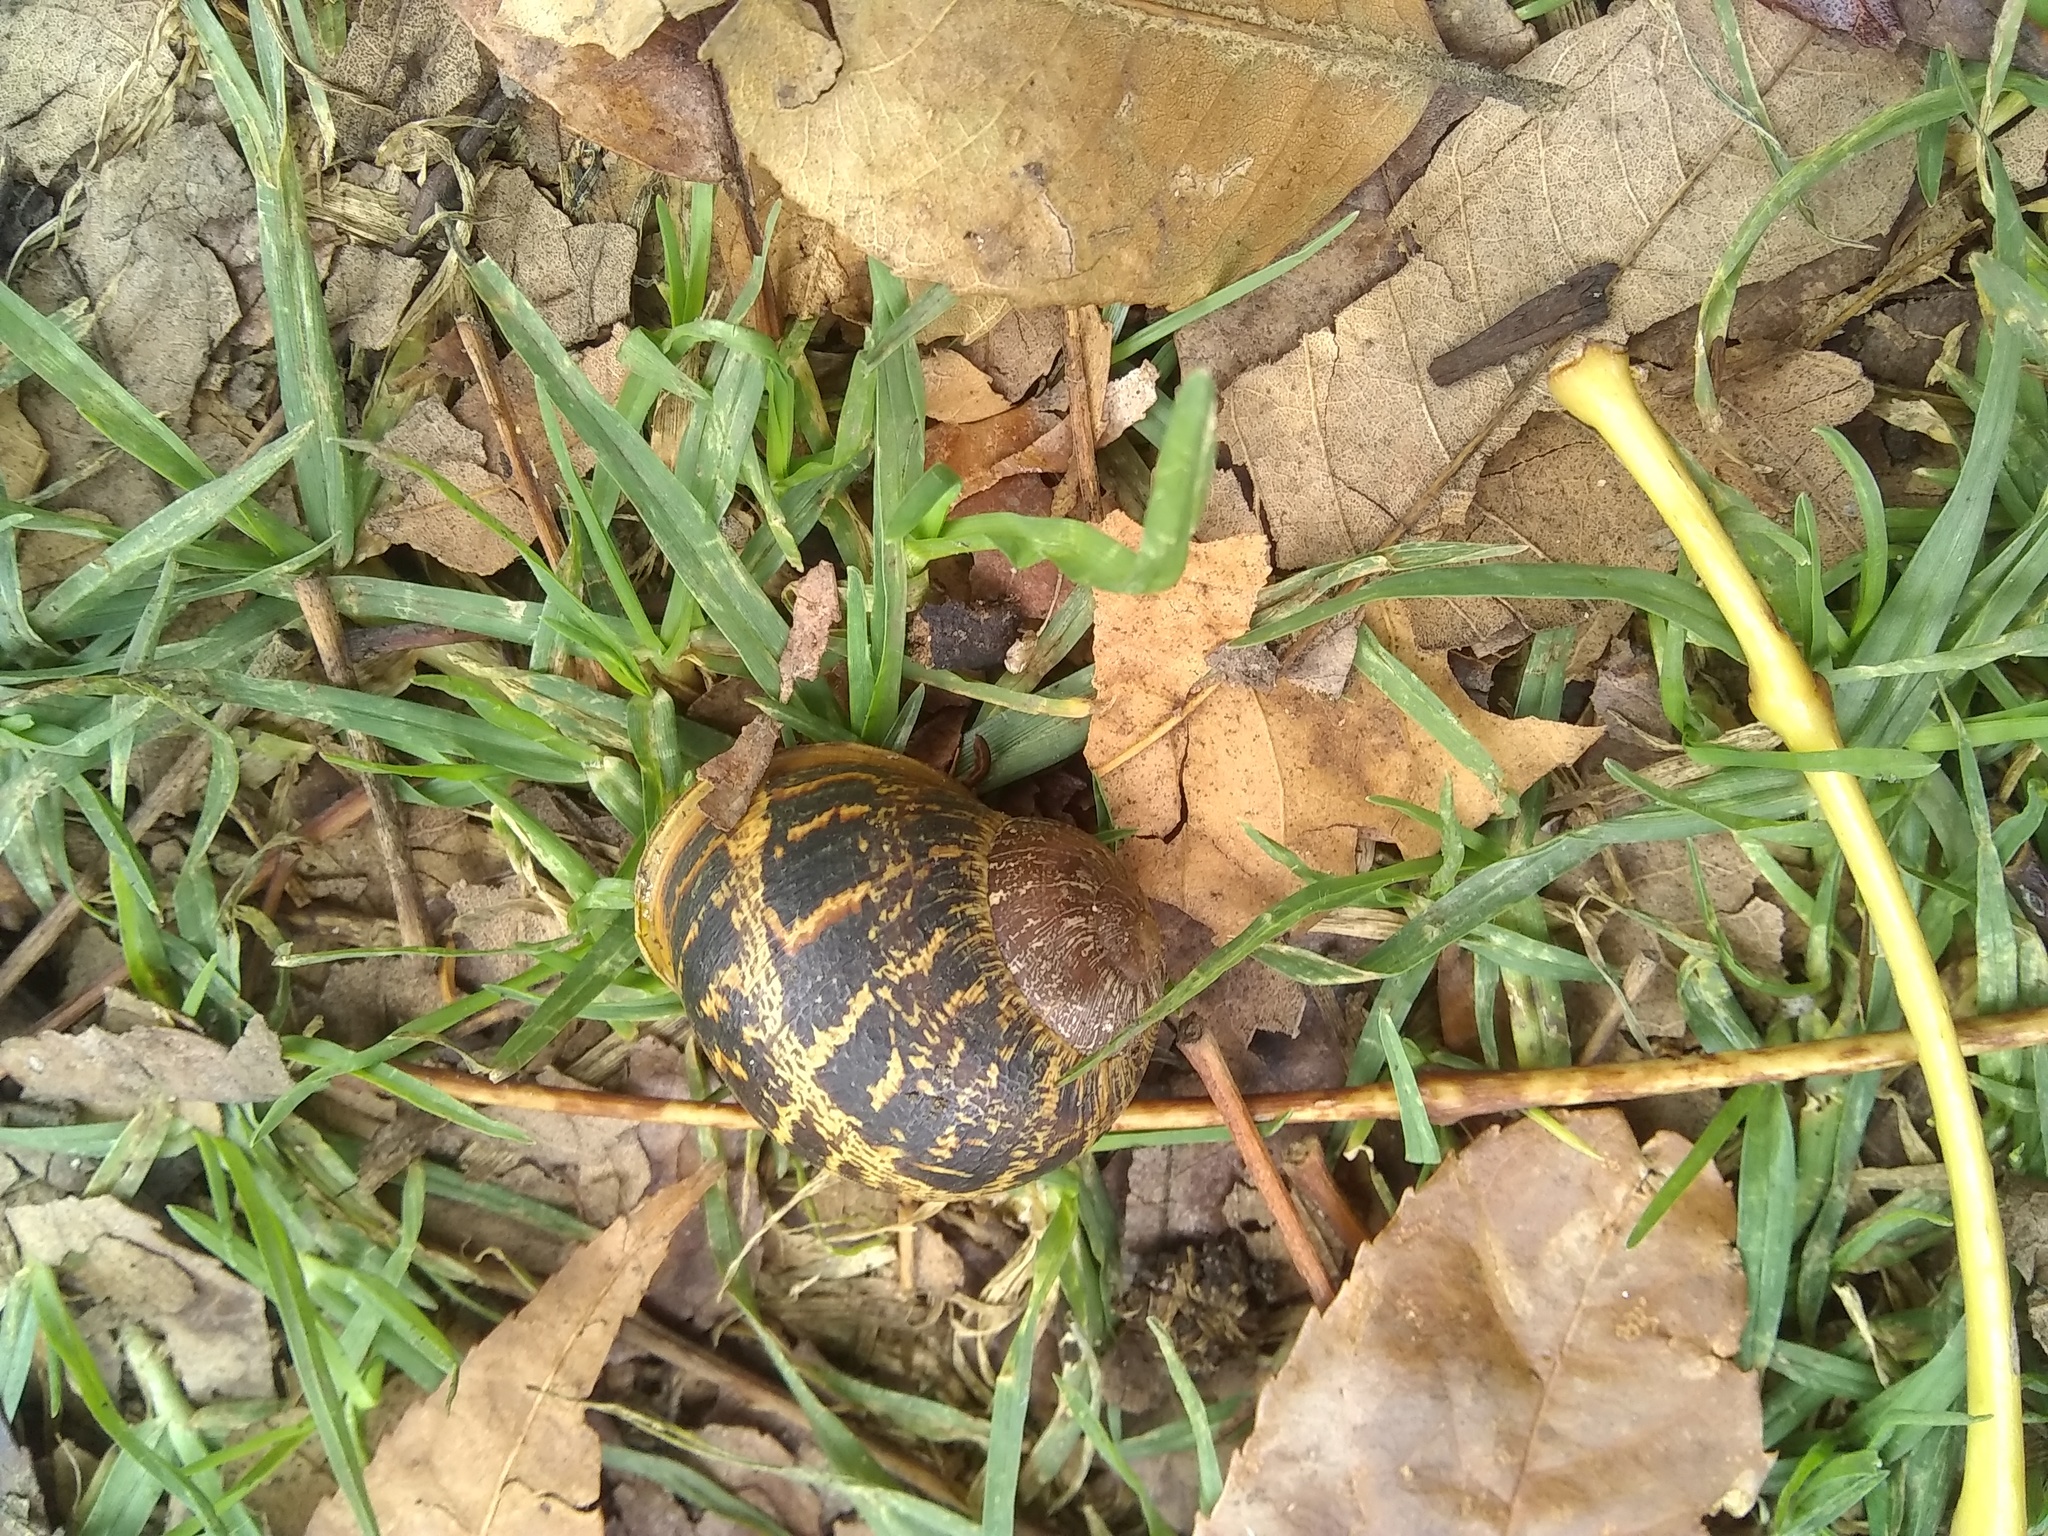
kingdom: Animalia
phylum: Mollusca
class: Gastropoda
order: Stylommatophora
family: Helicidae
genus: Cornu
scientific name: Cornu aspersum
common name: Brown garden snail
